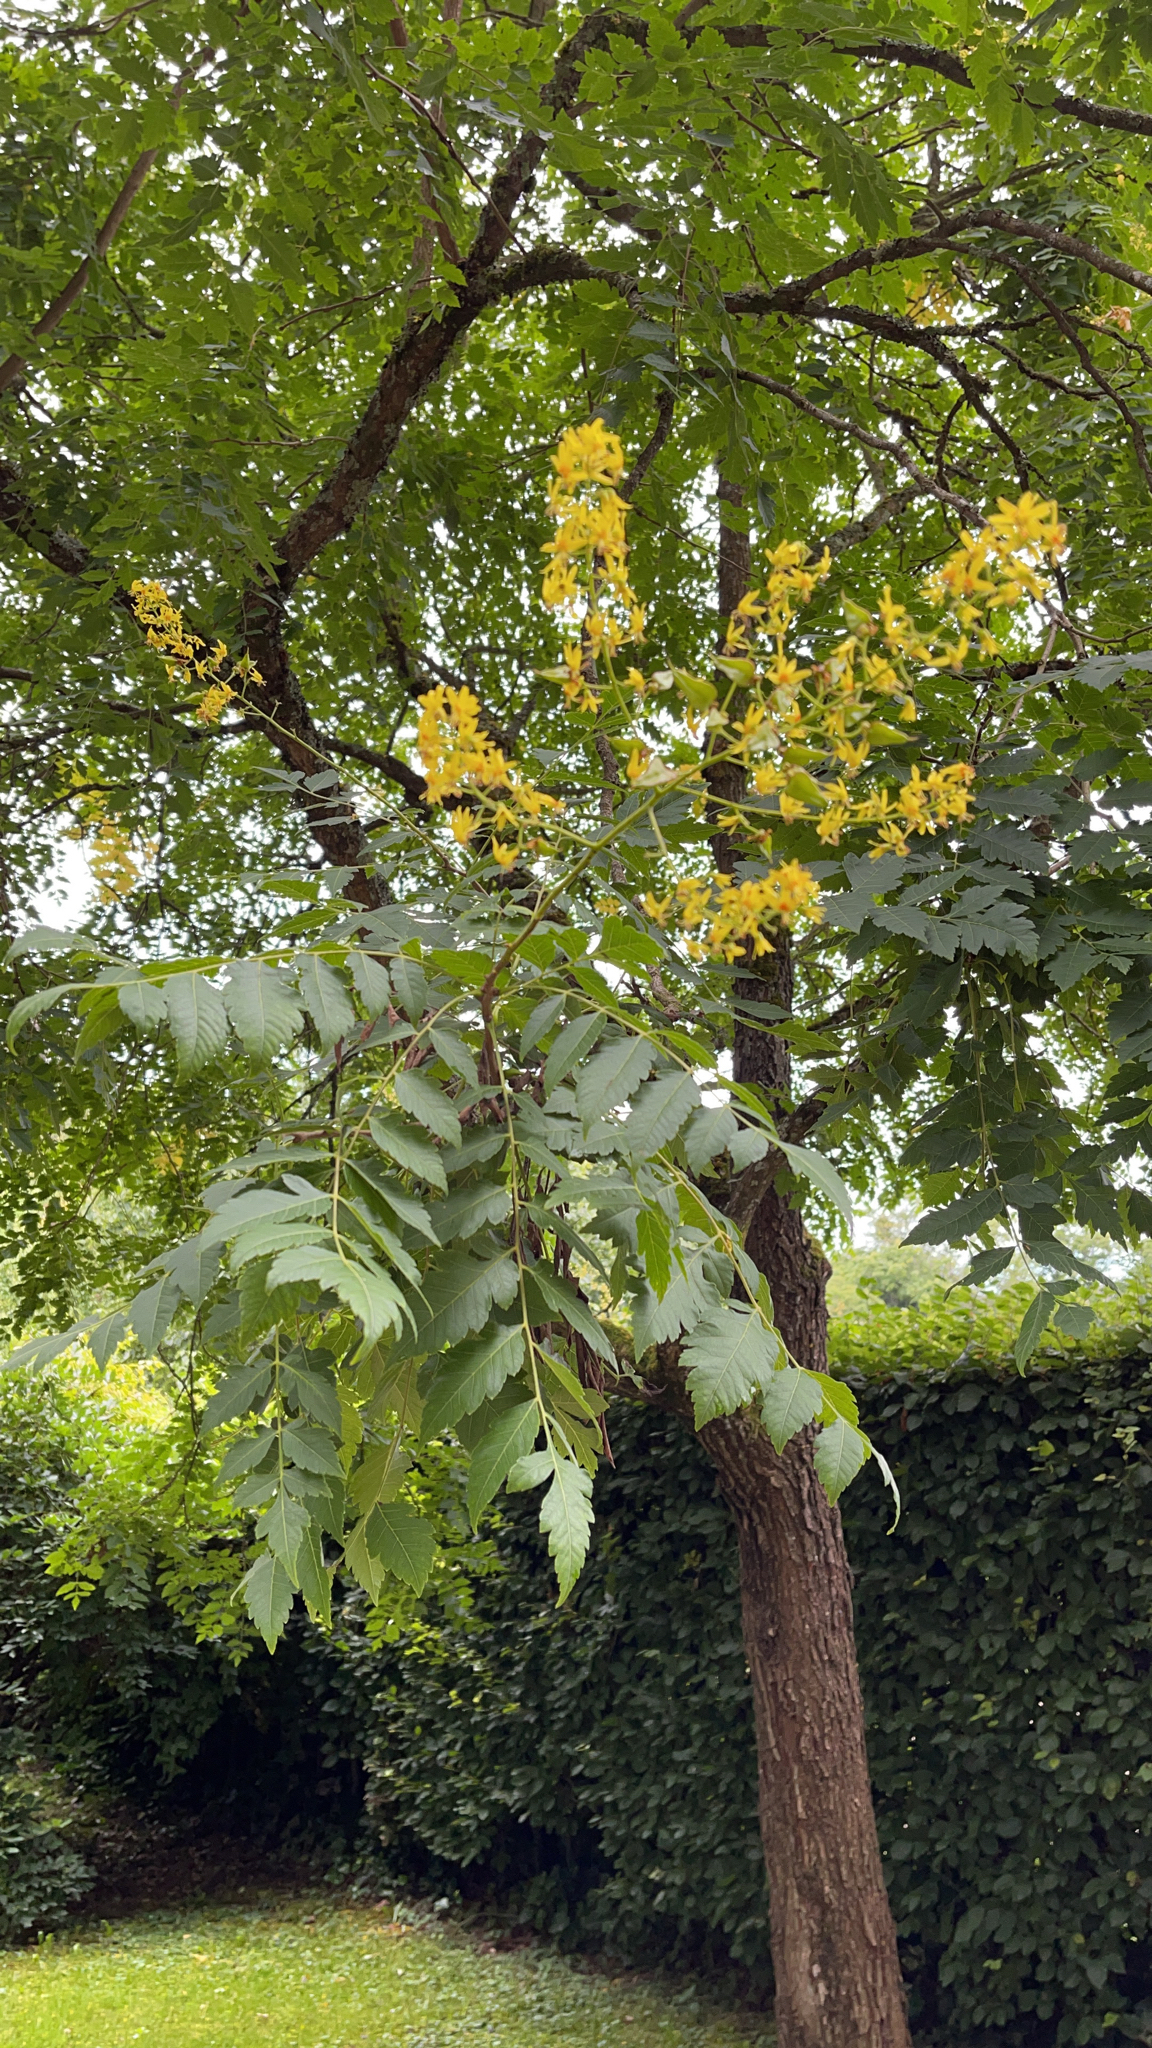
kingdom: Plantae
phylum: Tracheophyta
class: Magnoliopsida
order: Sapindales
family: Sapindaceae
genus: Koelreuteria
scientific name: Koelreuteria paniculata
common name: Pride-of-india
